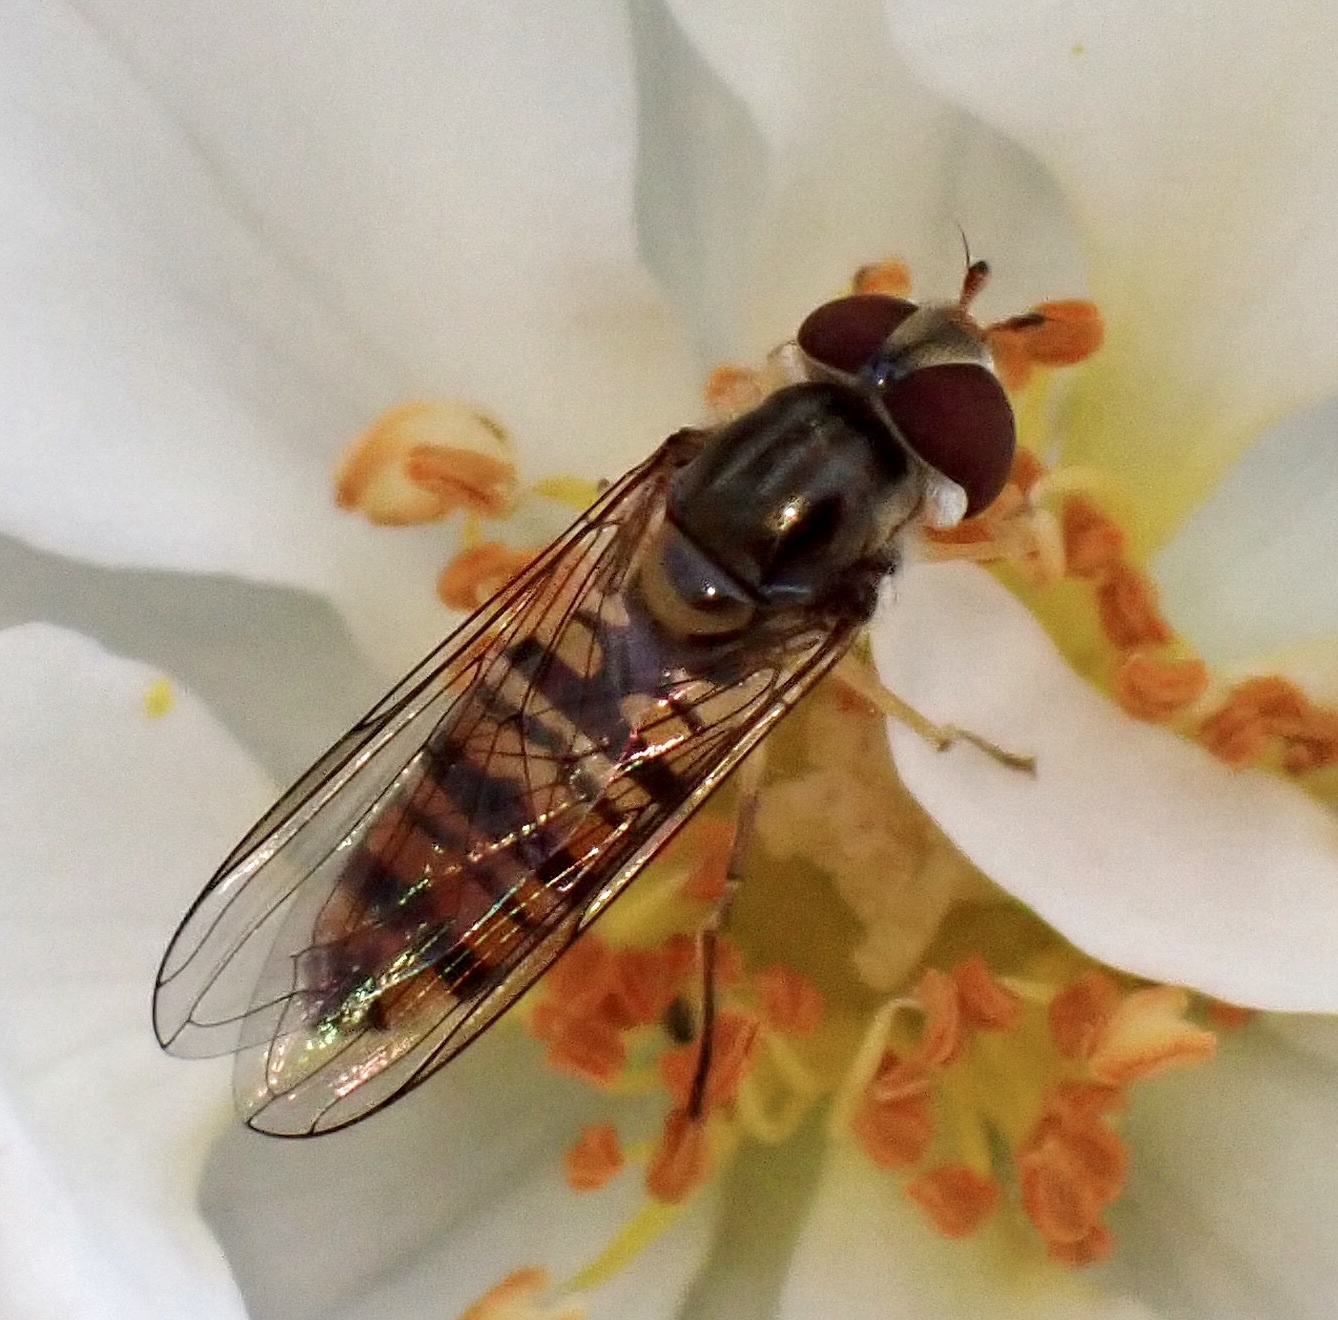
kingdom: Animalia
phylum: Arthropoda
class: Insecta
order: Diptera
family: Syrphidae
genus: Episyrphus
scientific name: Episyrphus balteatus
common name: Marmalade hoverfly
